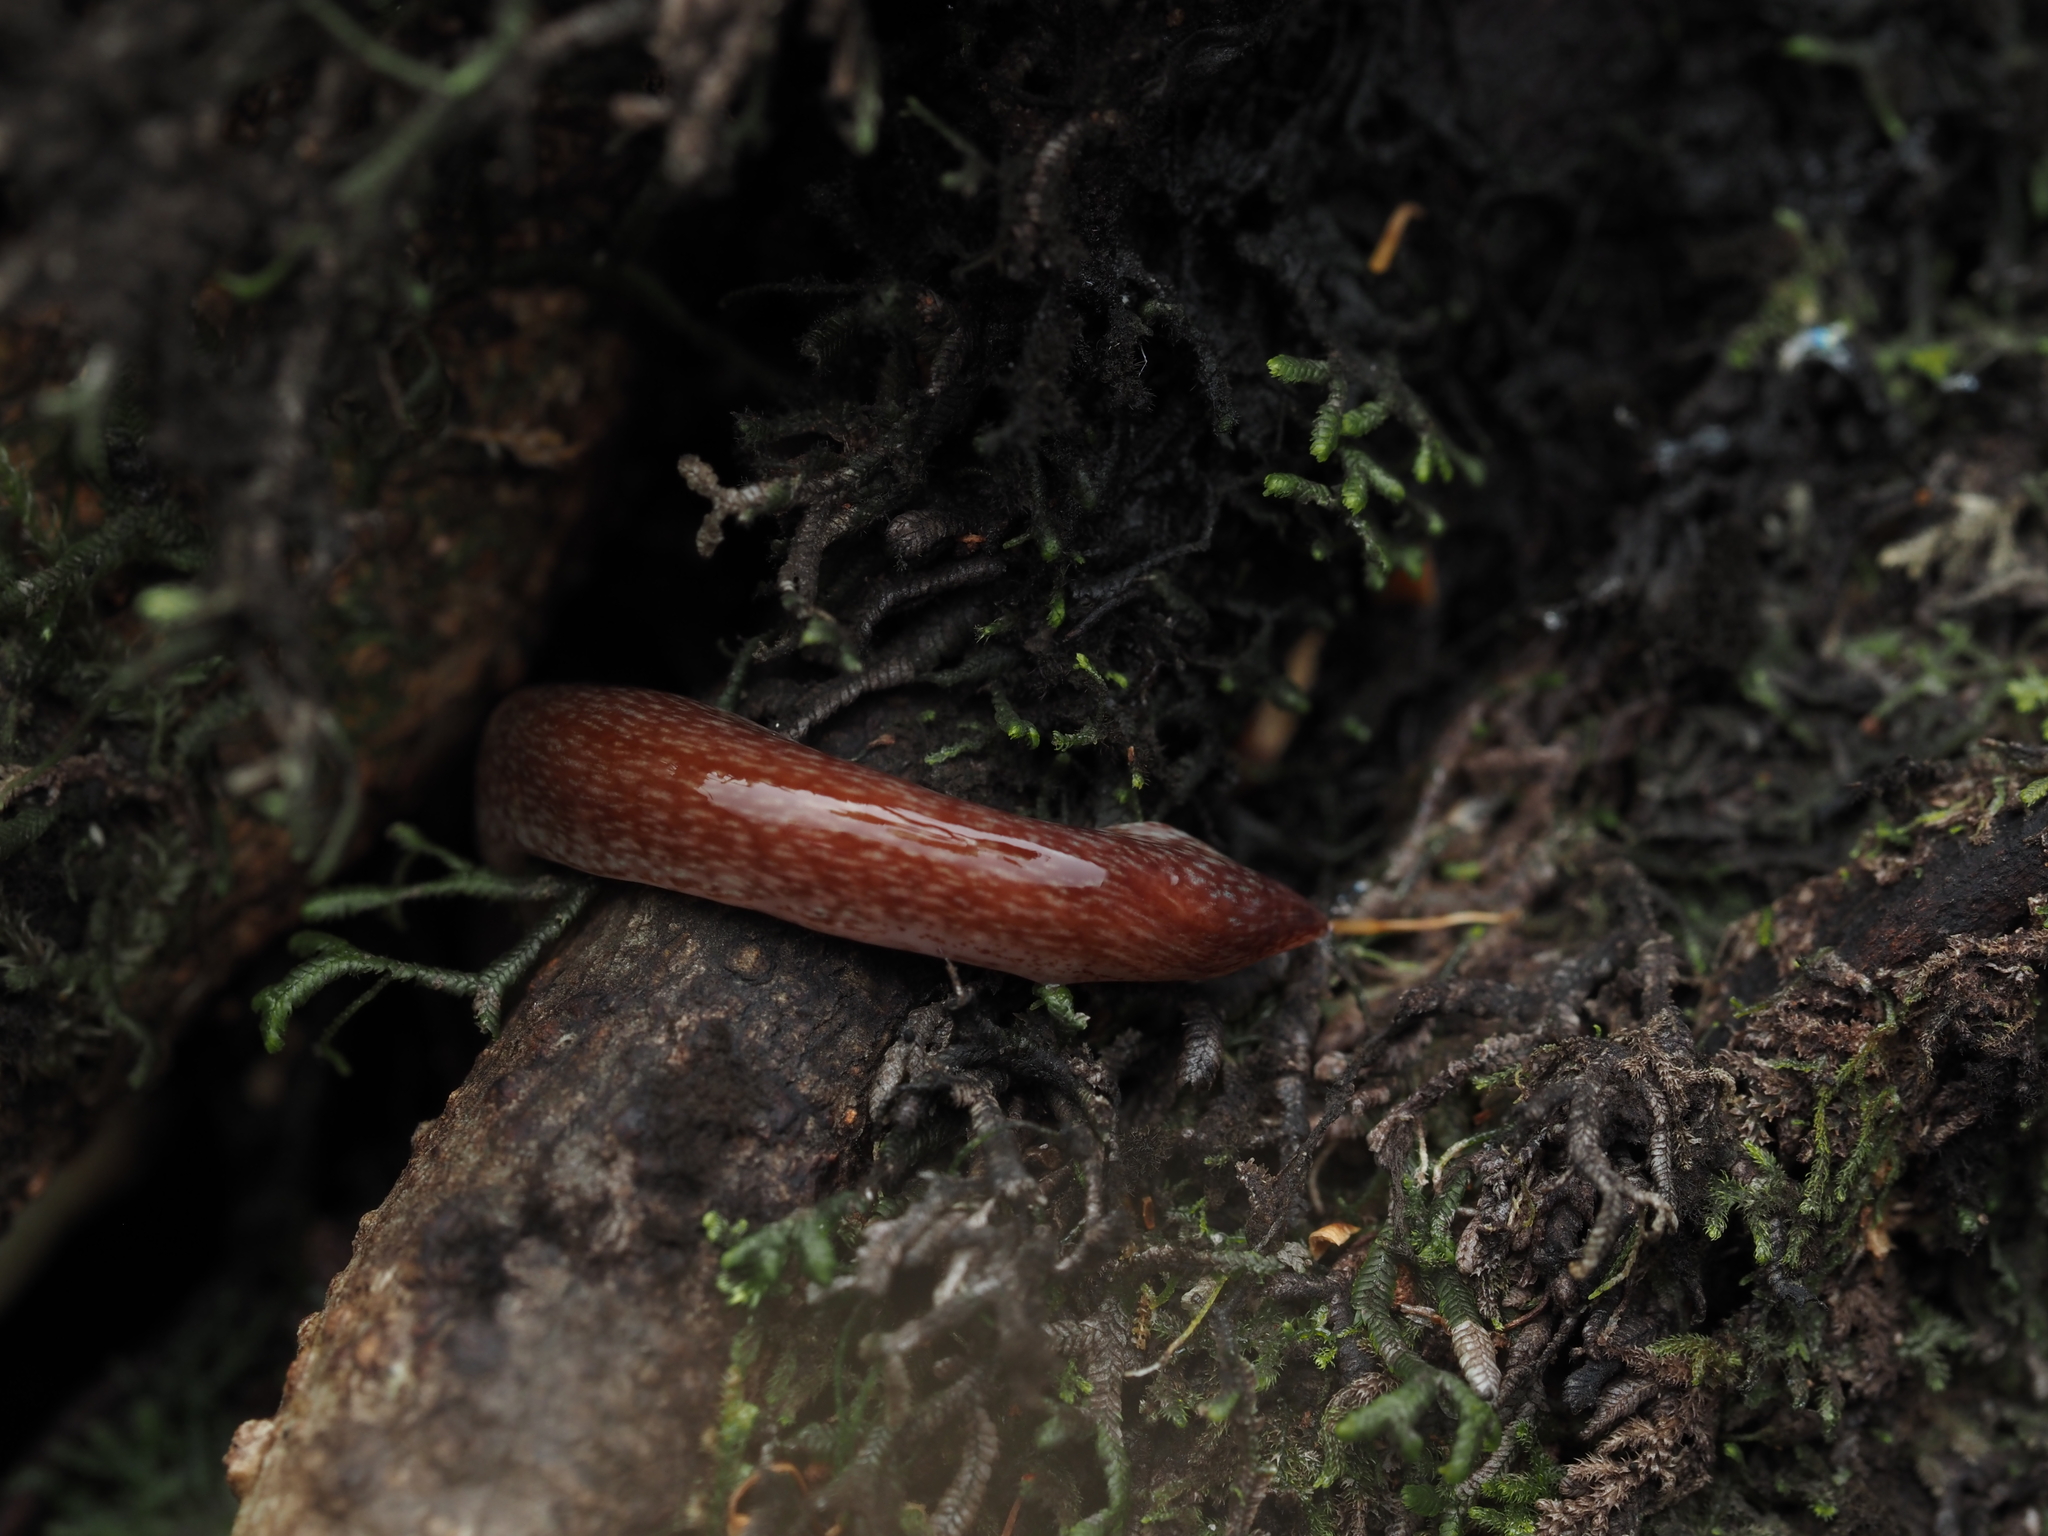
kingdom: Animalia
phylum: Platyhelminthes
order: Tricladida
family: Geoplanidae
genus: Australopacifica
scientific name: Australopacifica spectabilis
